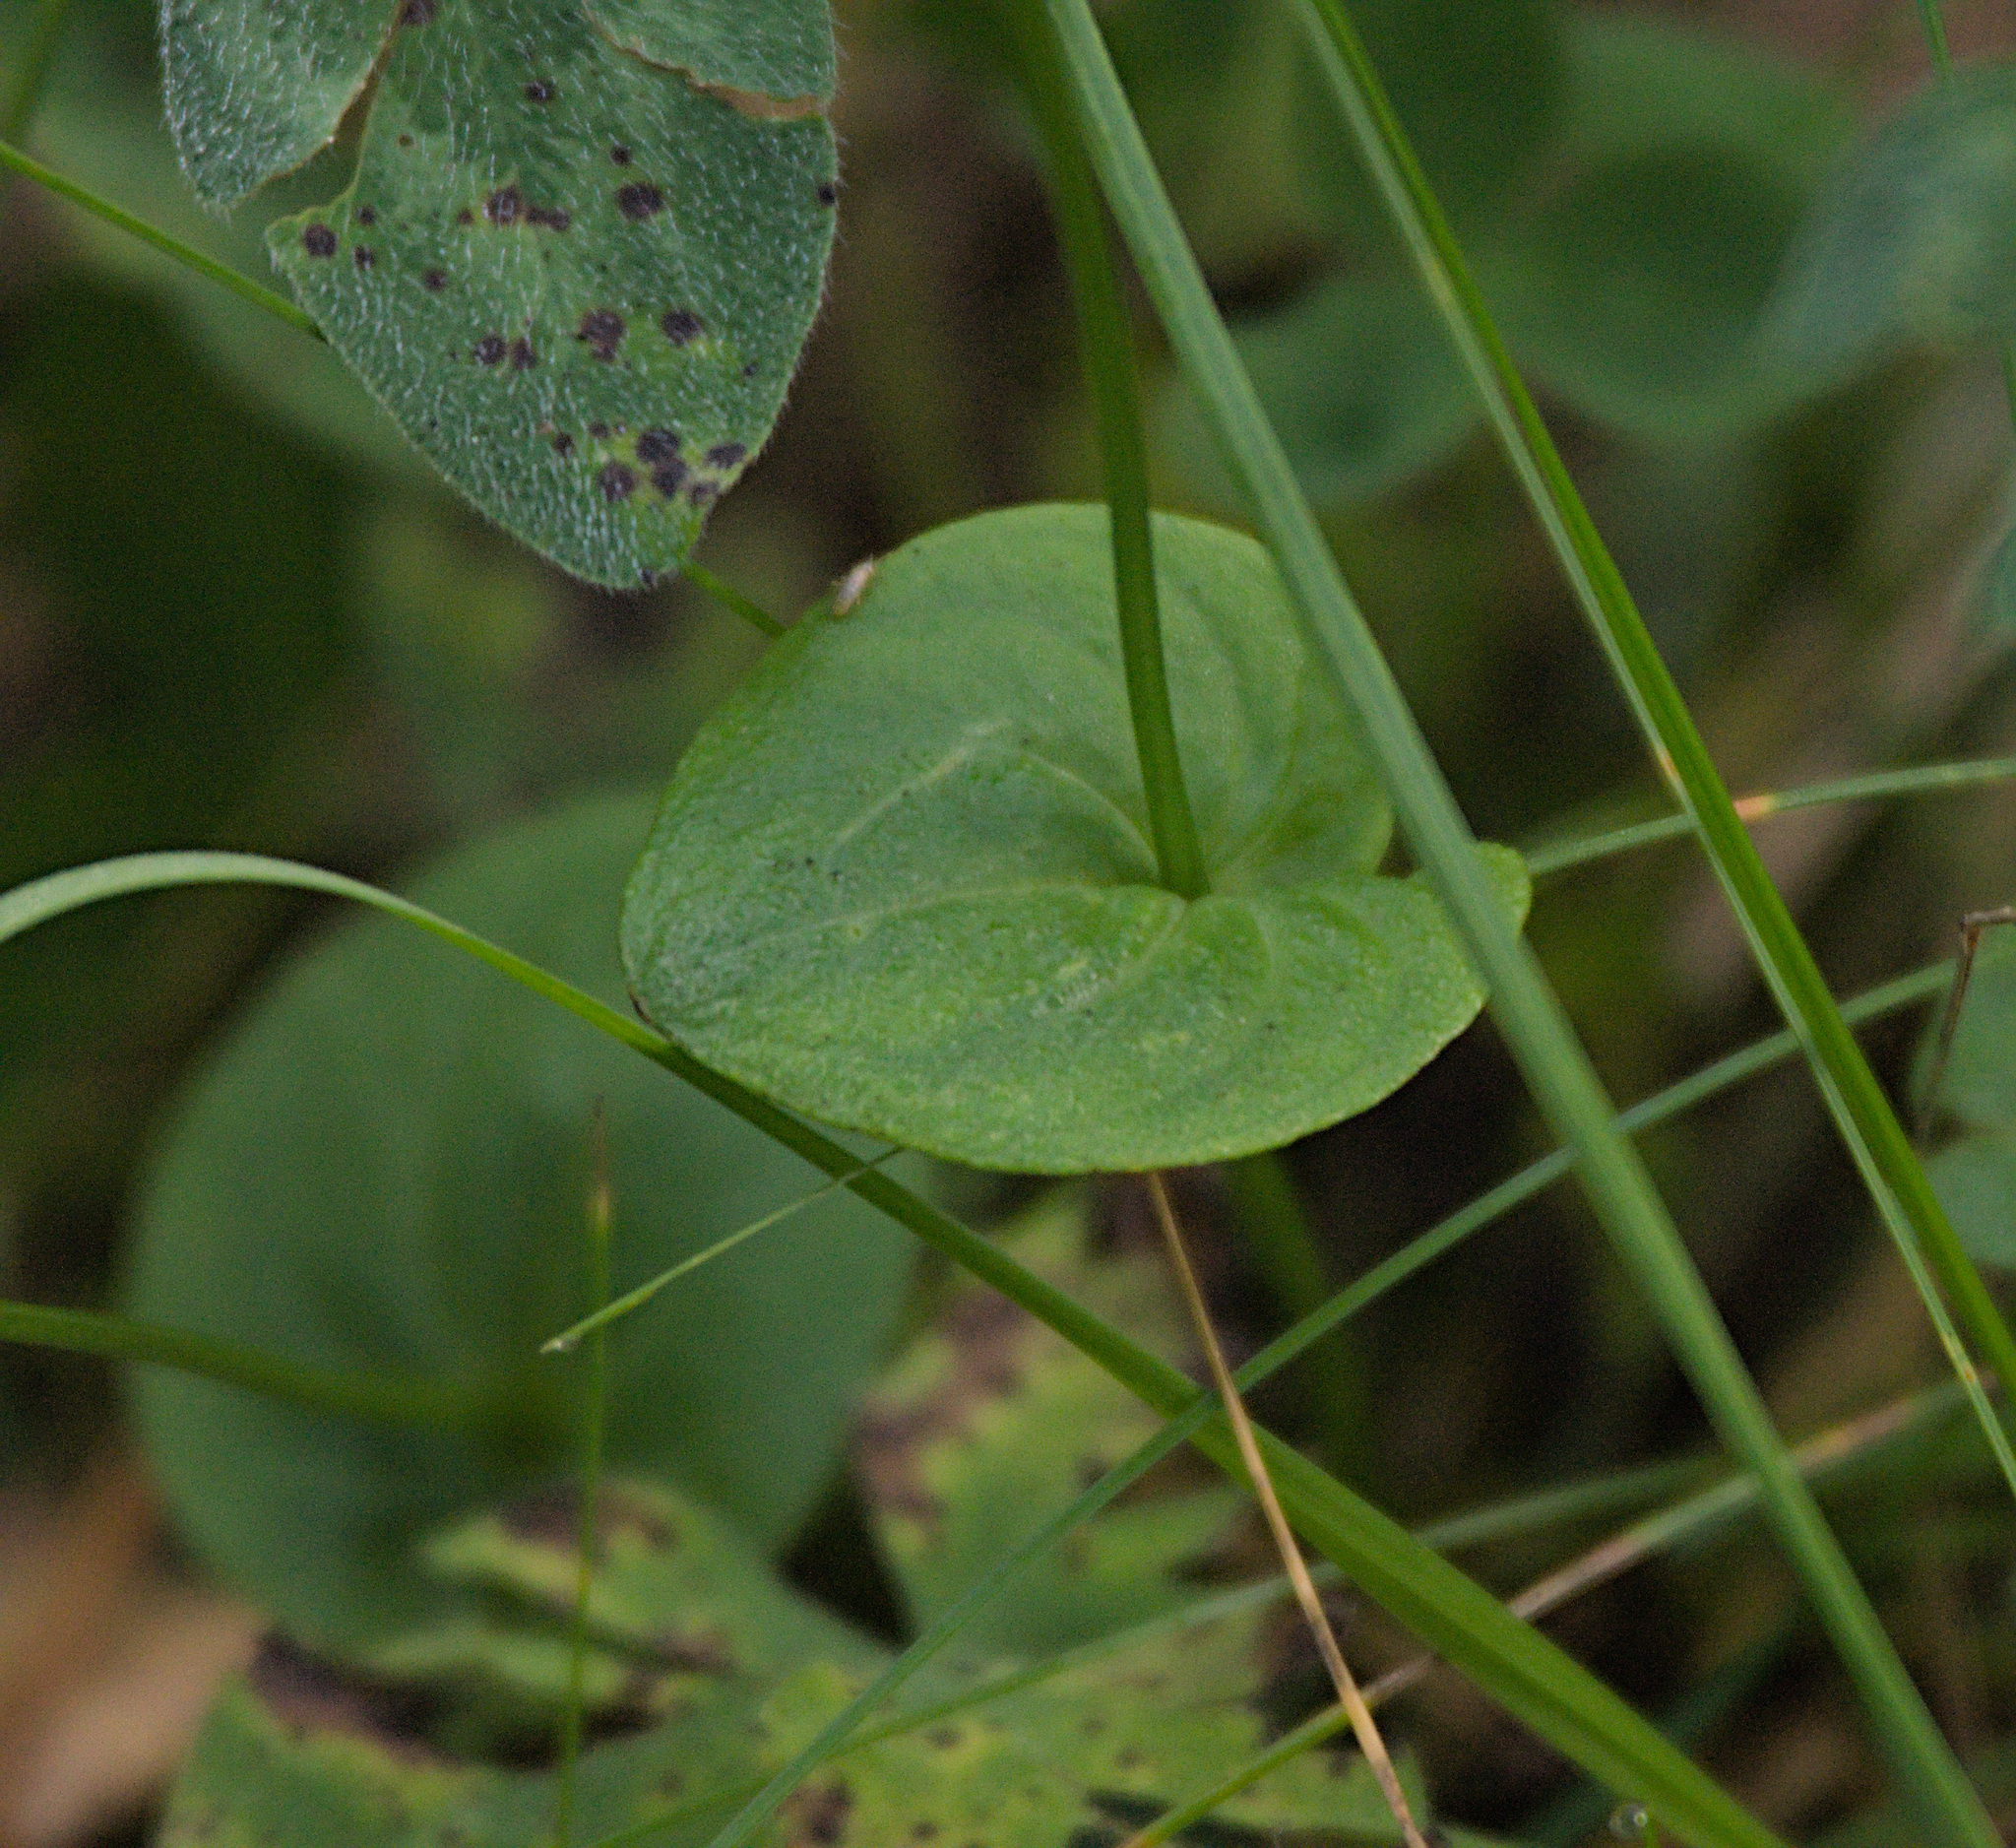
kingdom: Plantae
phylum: Tracheophyta
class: Magnoliopsida
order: Celastrales
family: Parnassiaceae
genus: Parnassia
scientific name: Parnassia palustris
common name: Grass-of-parnassus
